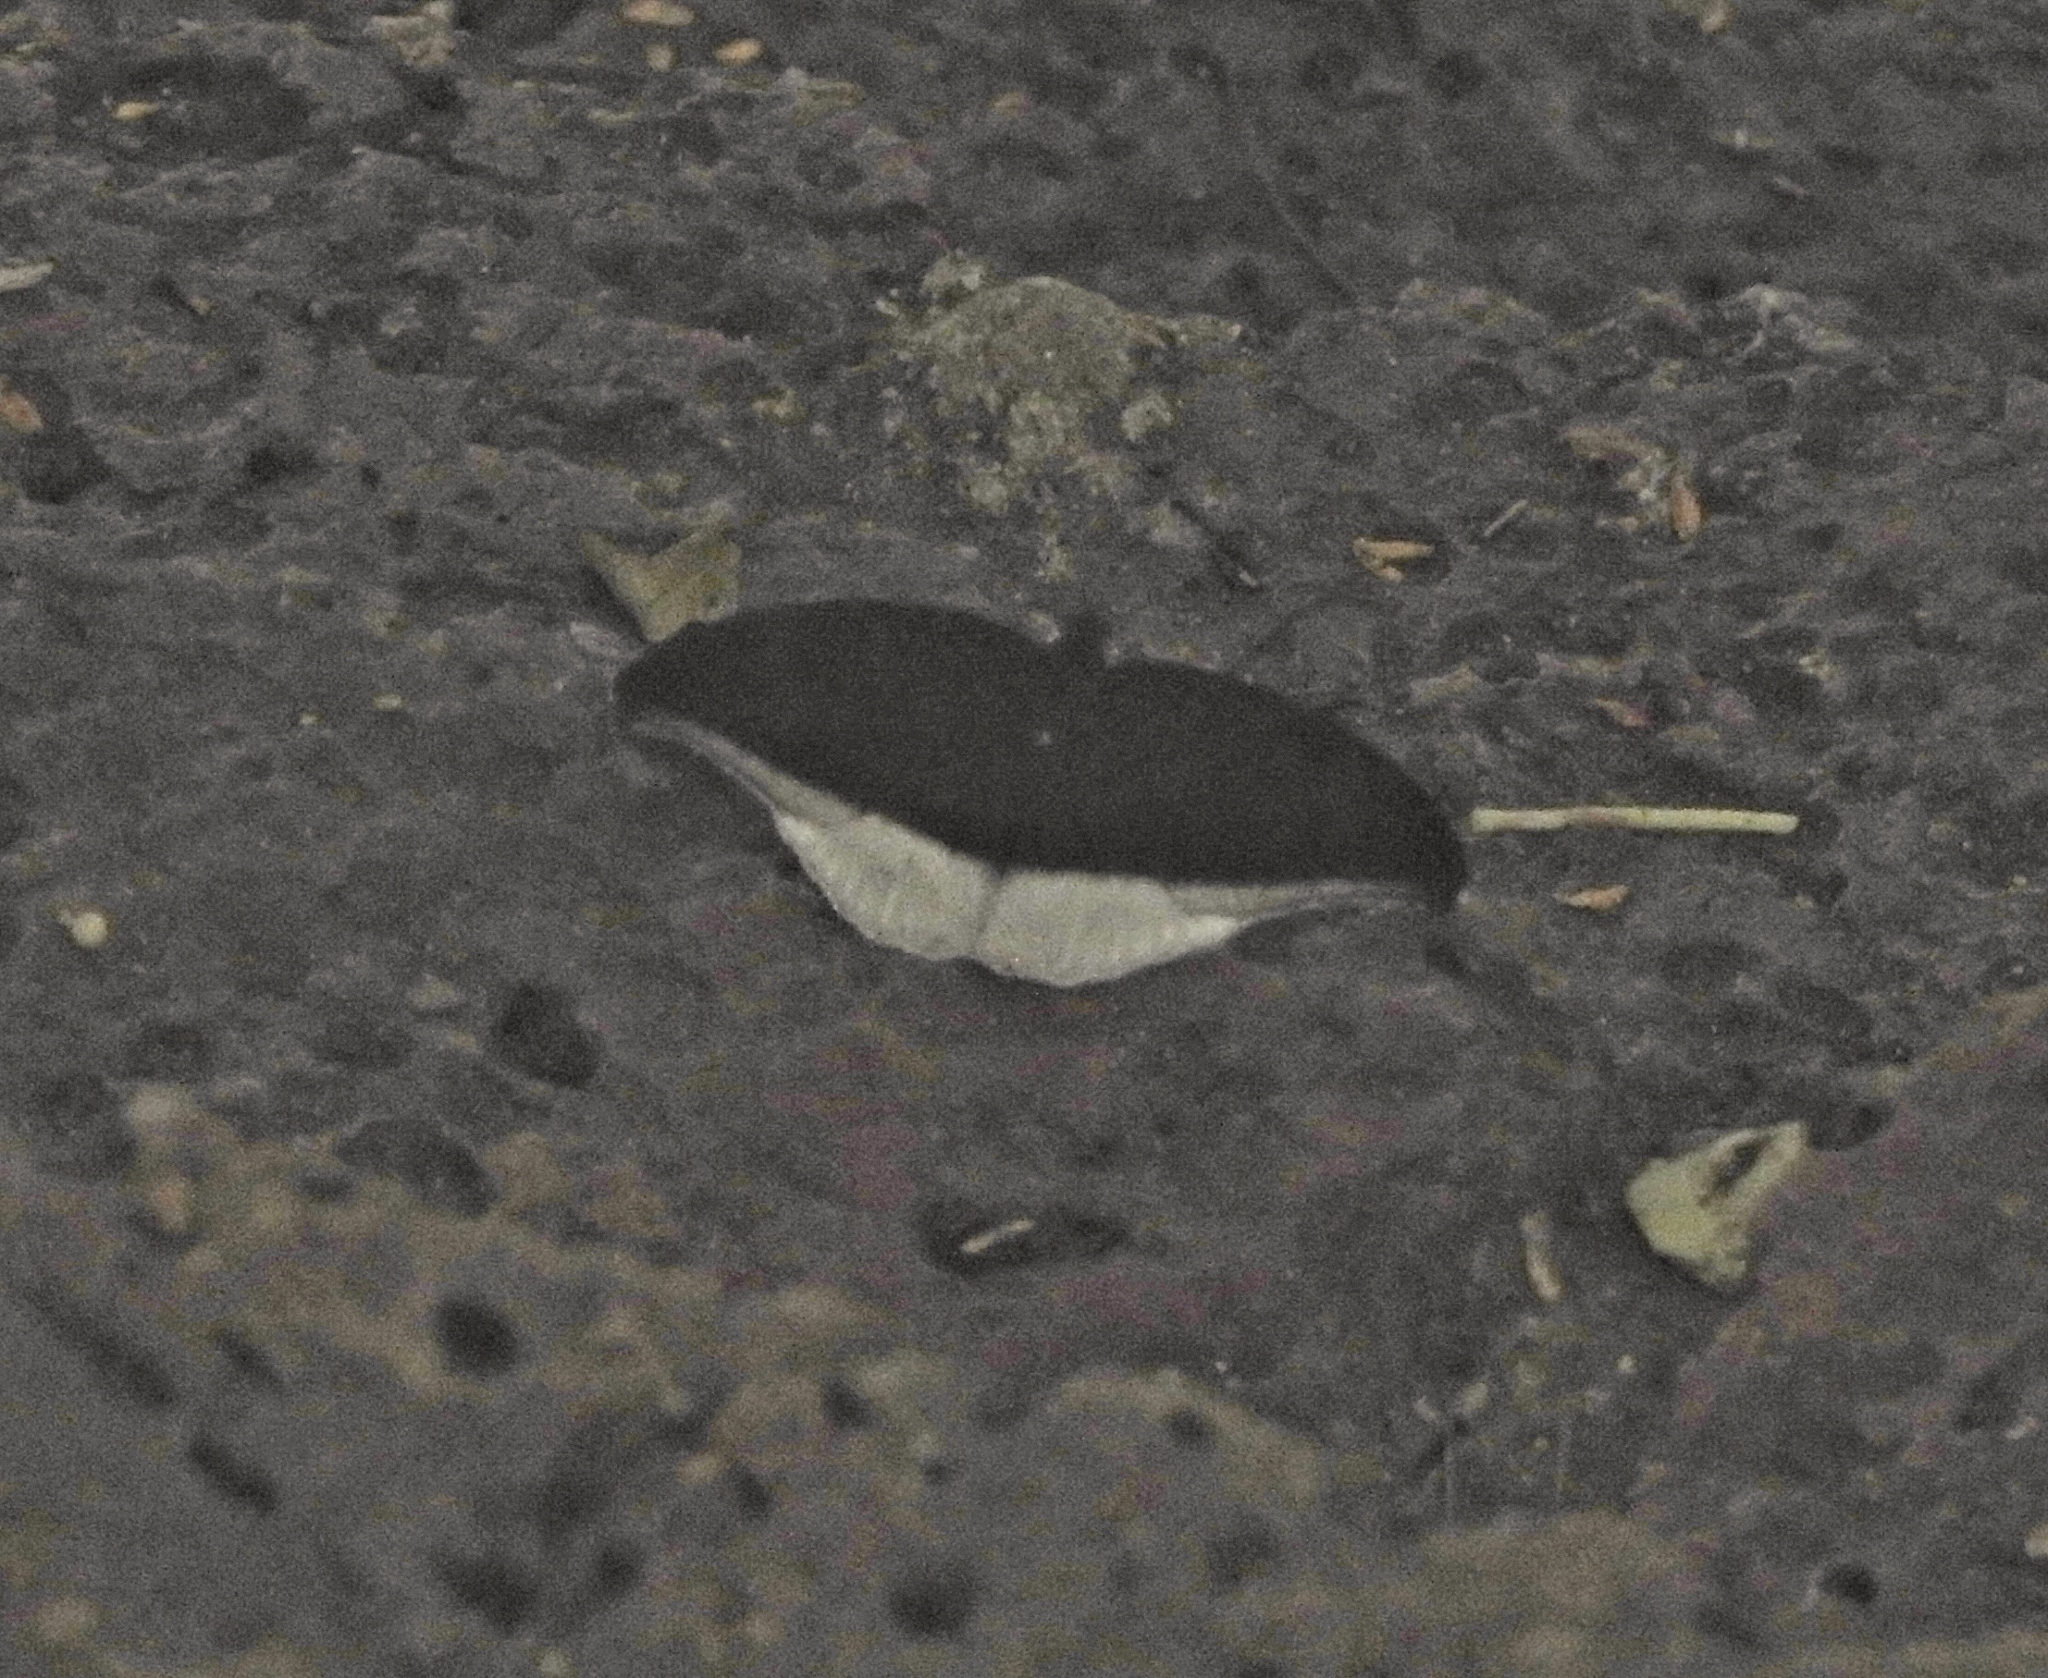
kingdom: Animalia
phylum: Arthropoda
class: Insecta
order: Lepidoptera
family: Nymphalidae
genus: Tanaecia
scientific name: Tanaecia lepidea
